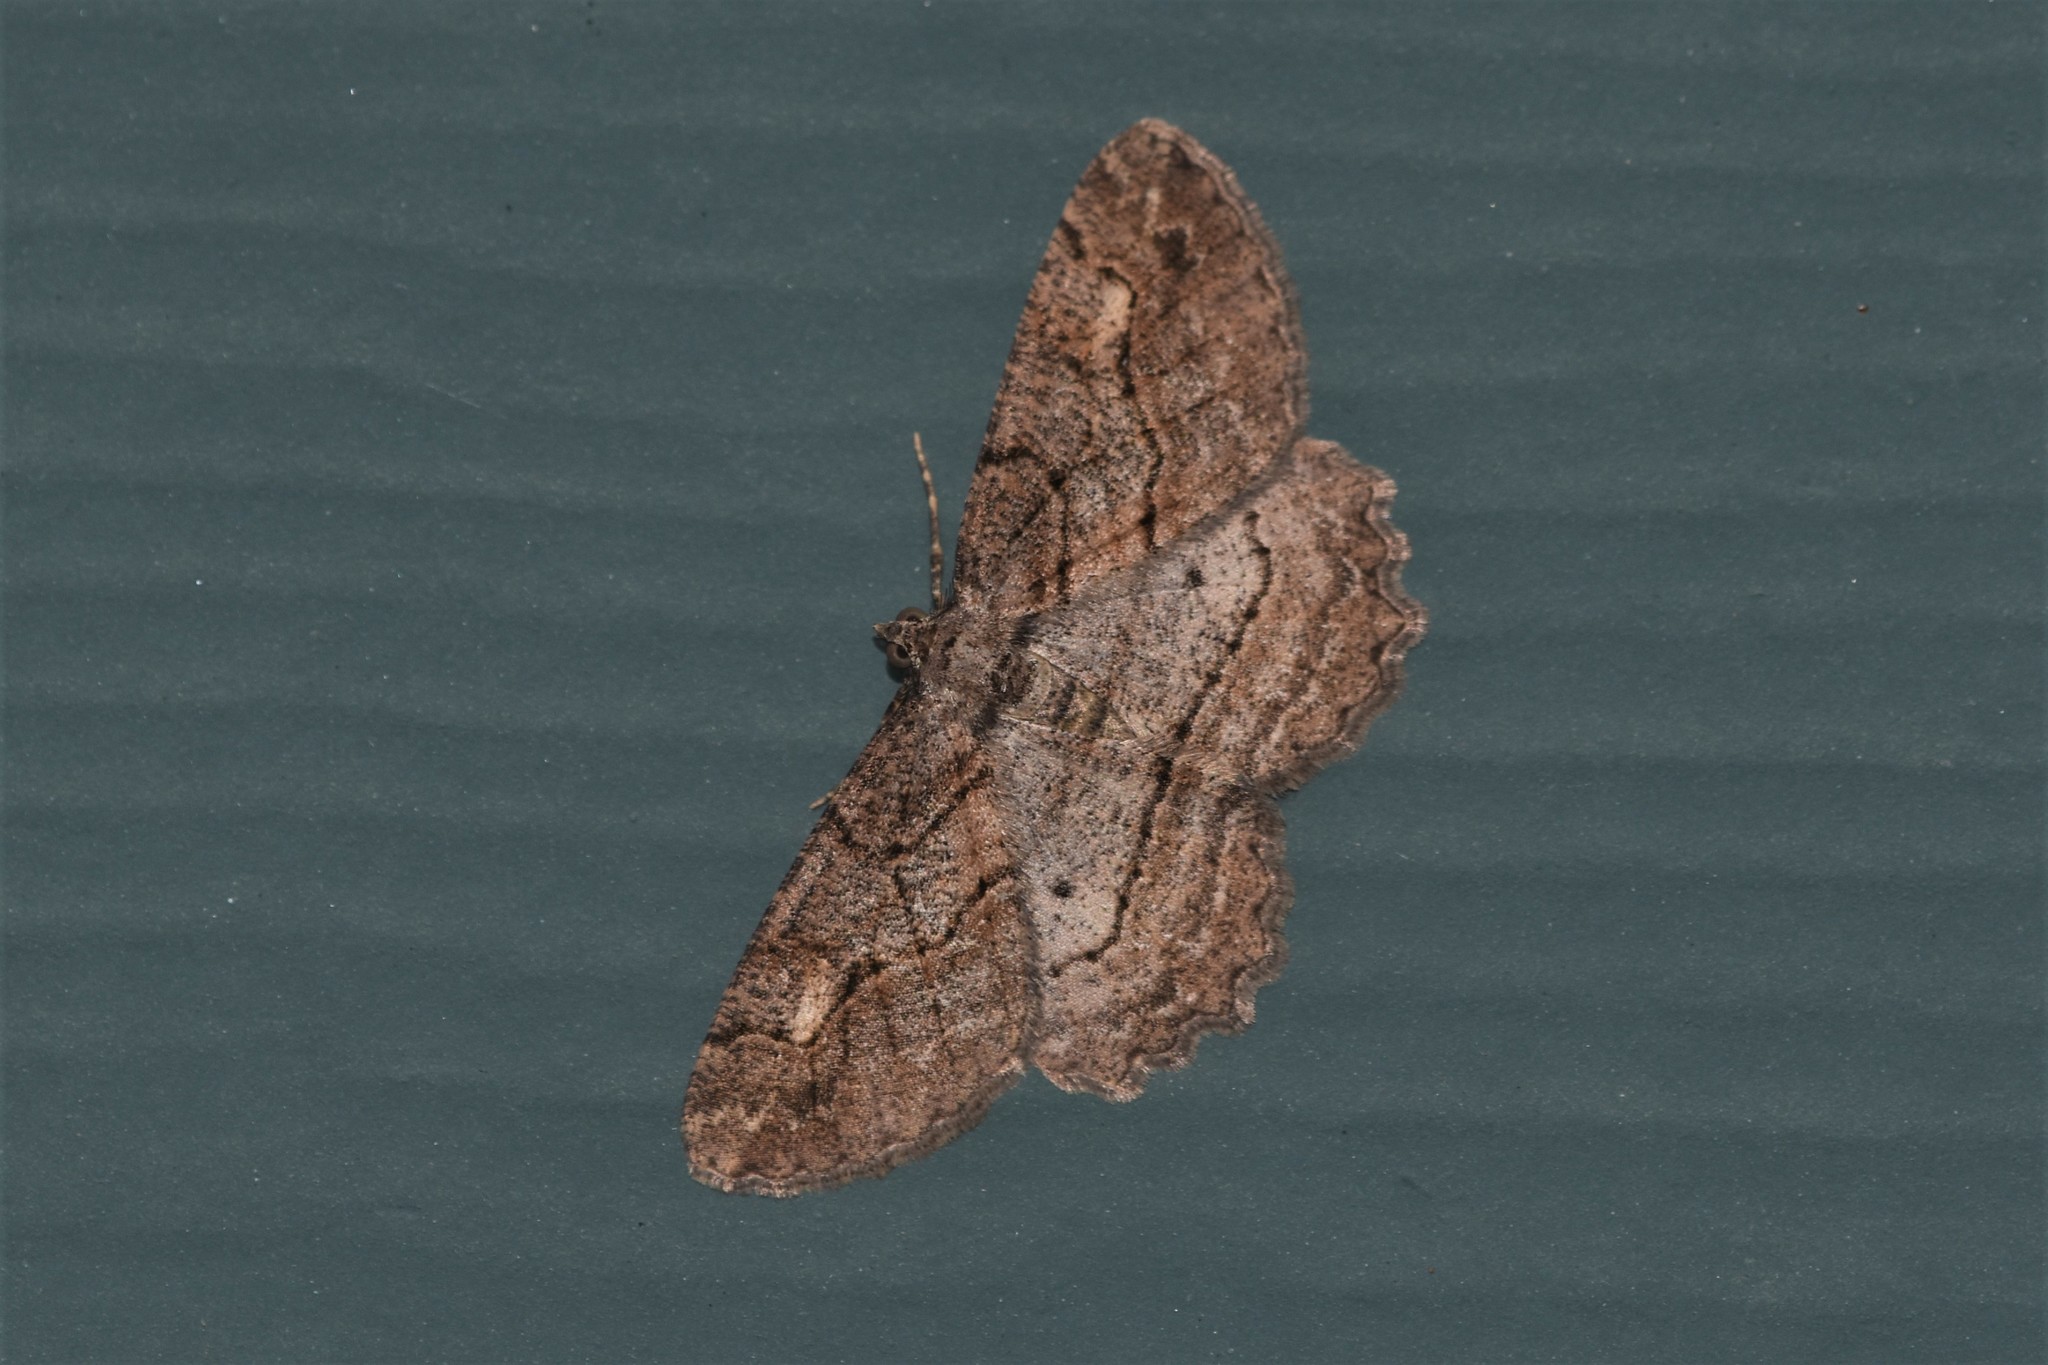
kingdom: Animalia
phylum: Arthropoda
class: Insecta
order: Lepidoptera
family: Geometridae
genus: Neoalcis
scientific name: Neoalcis californiaria
